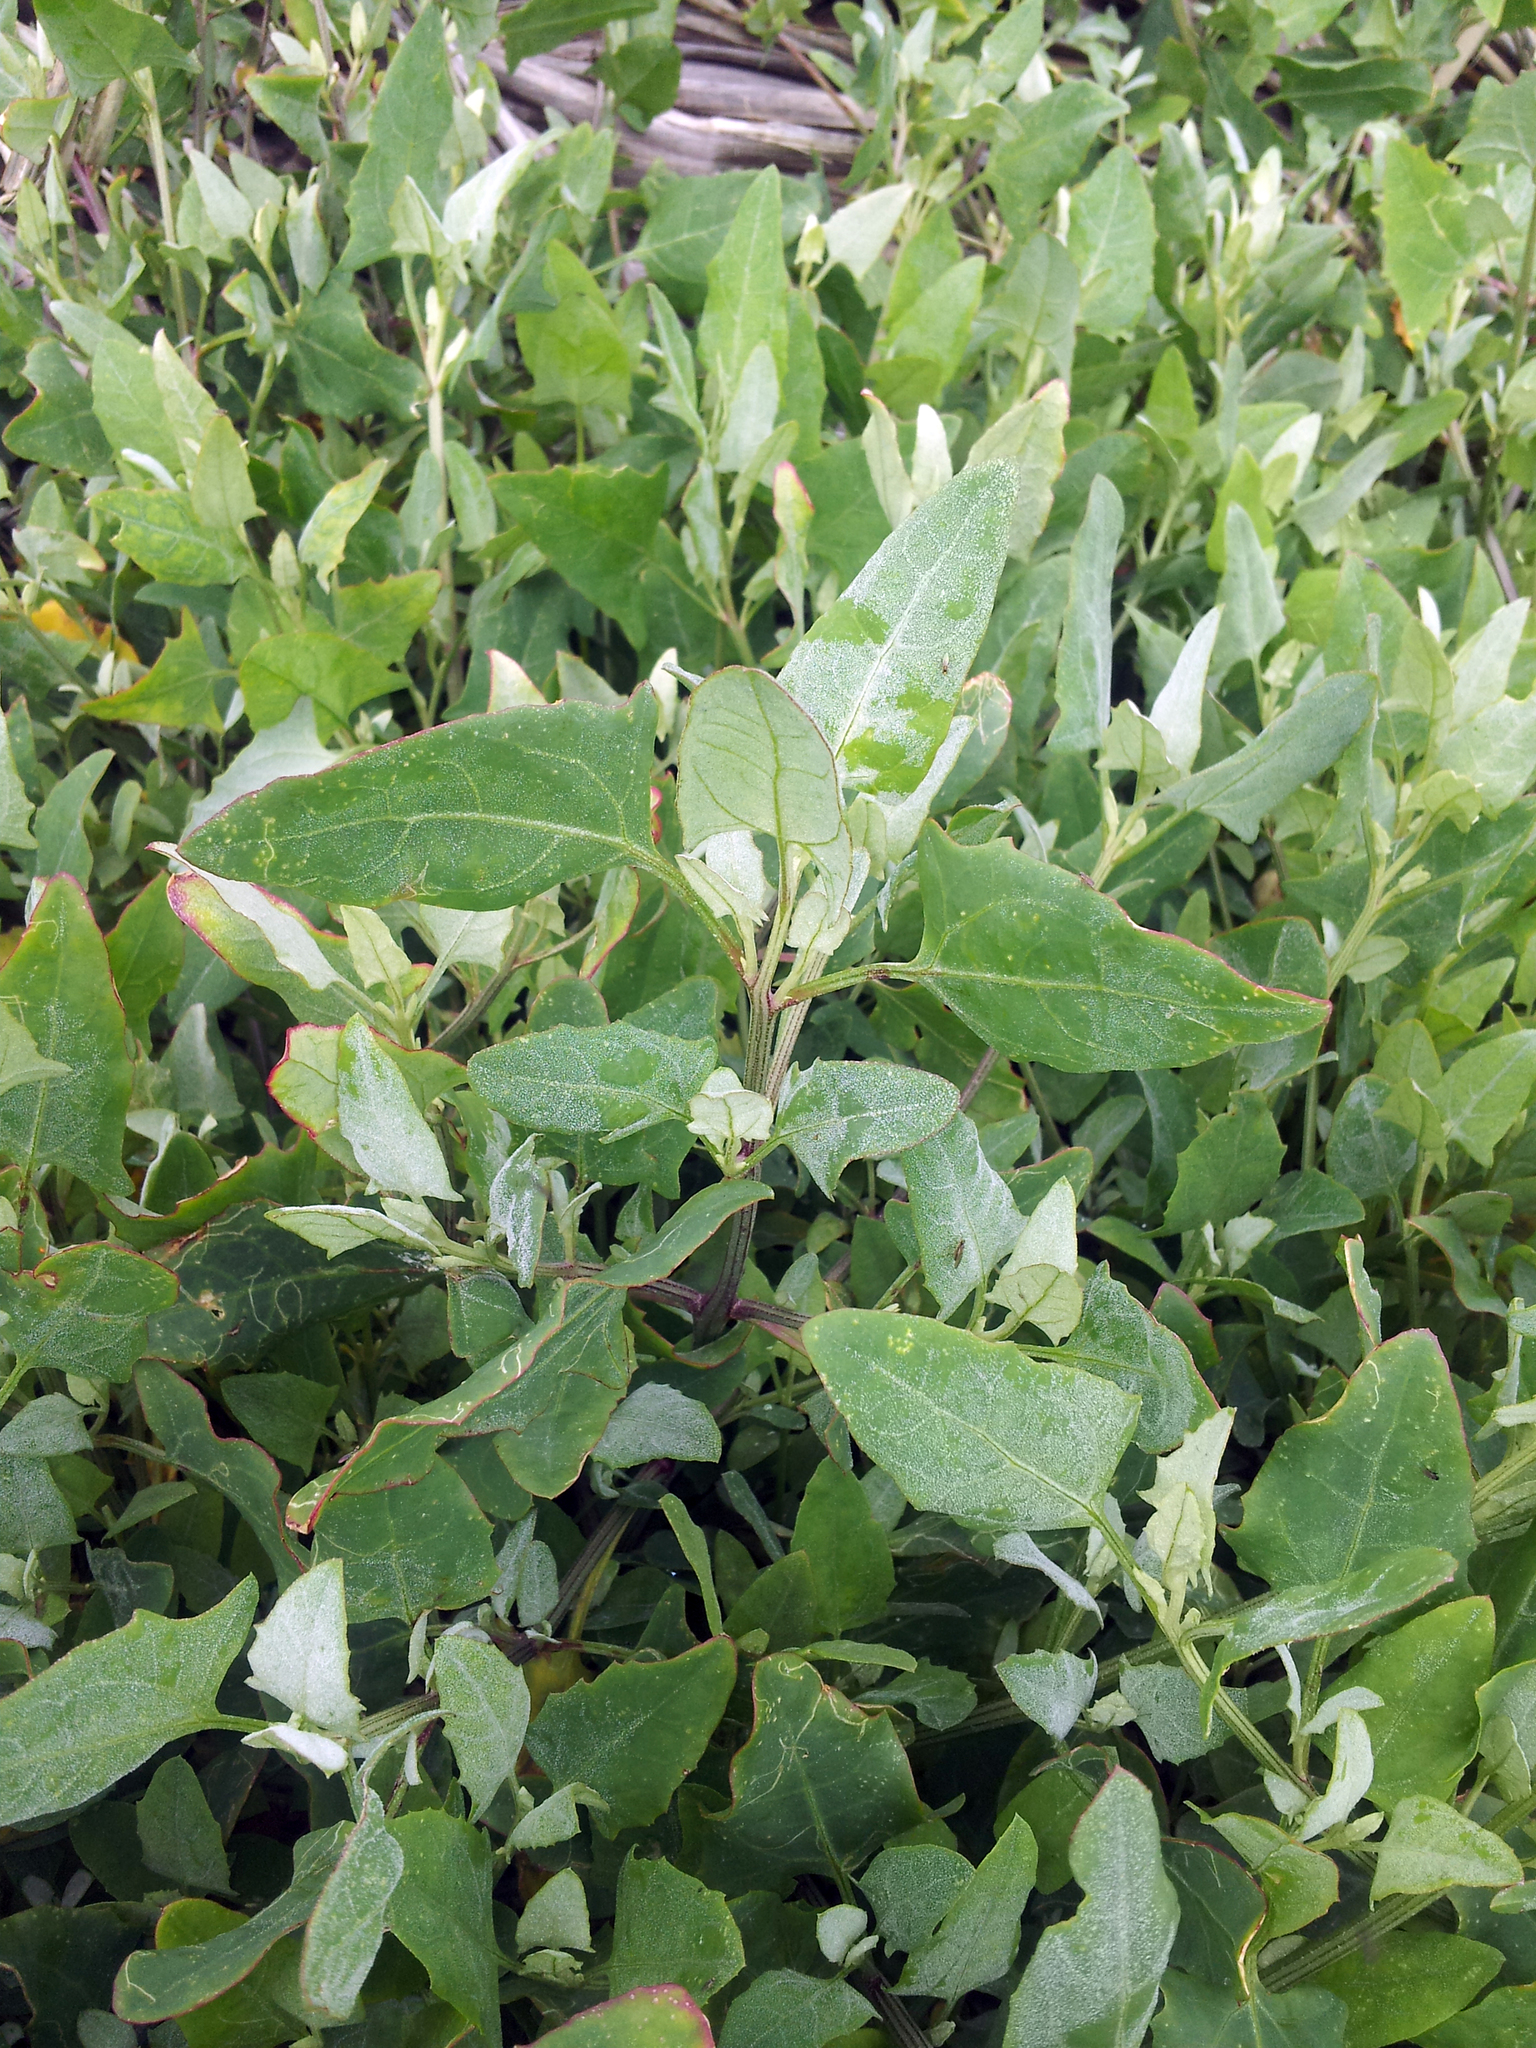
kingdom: Plantae
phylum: Tracheophyta
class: Magnoliopsida
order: Caryophyllales
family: Amaranthaceae
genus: Atriplex
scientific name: Atriplex prostrata
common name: Spear-leaved orache
